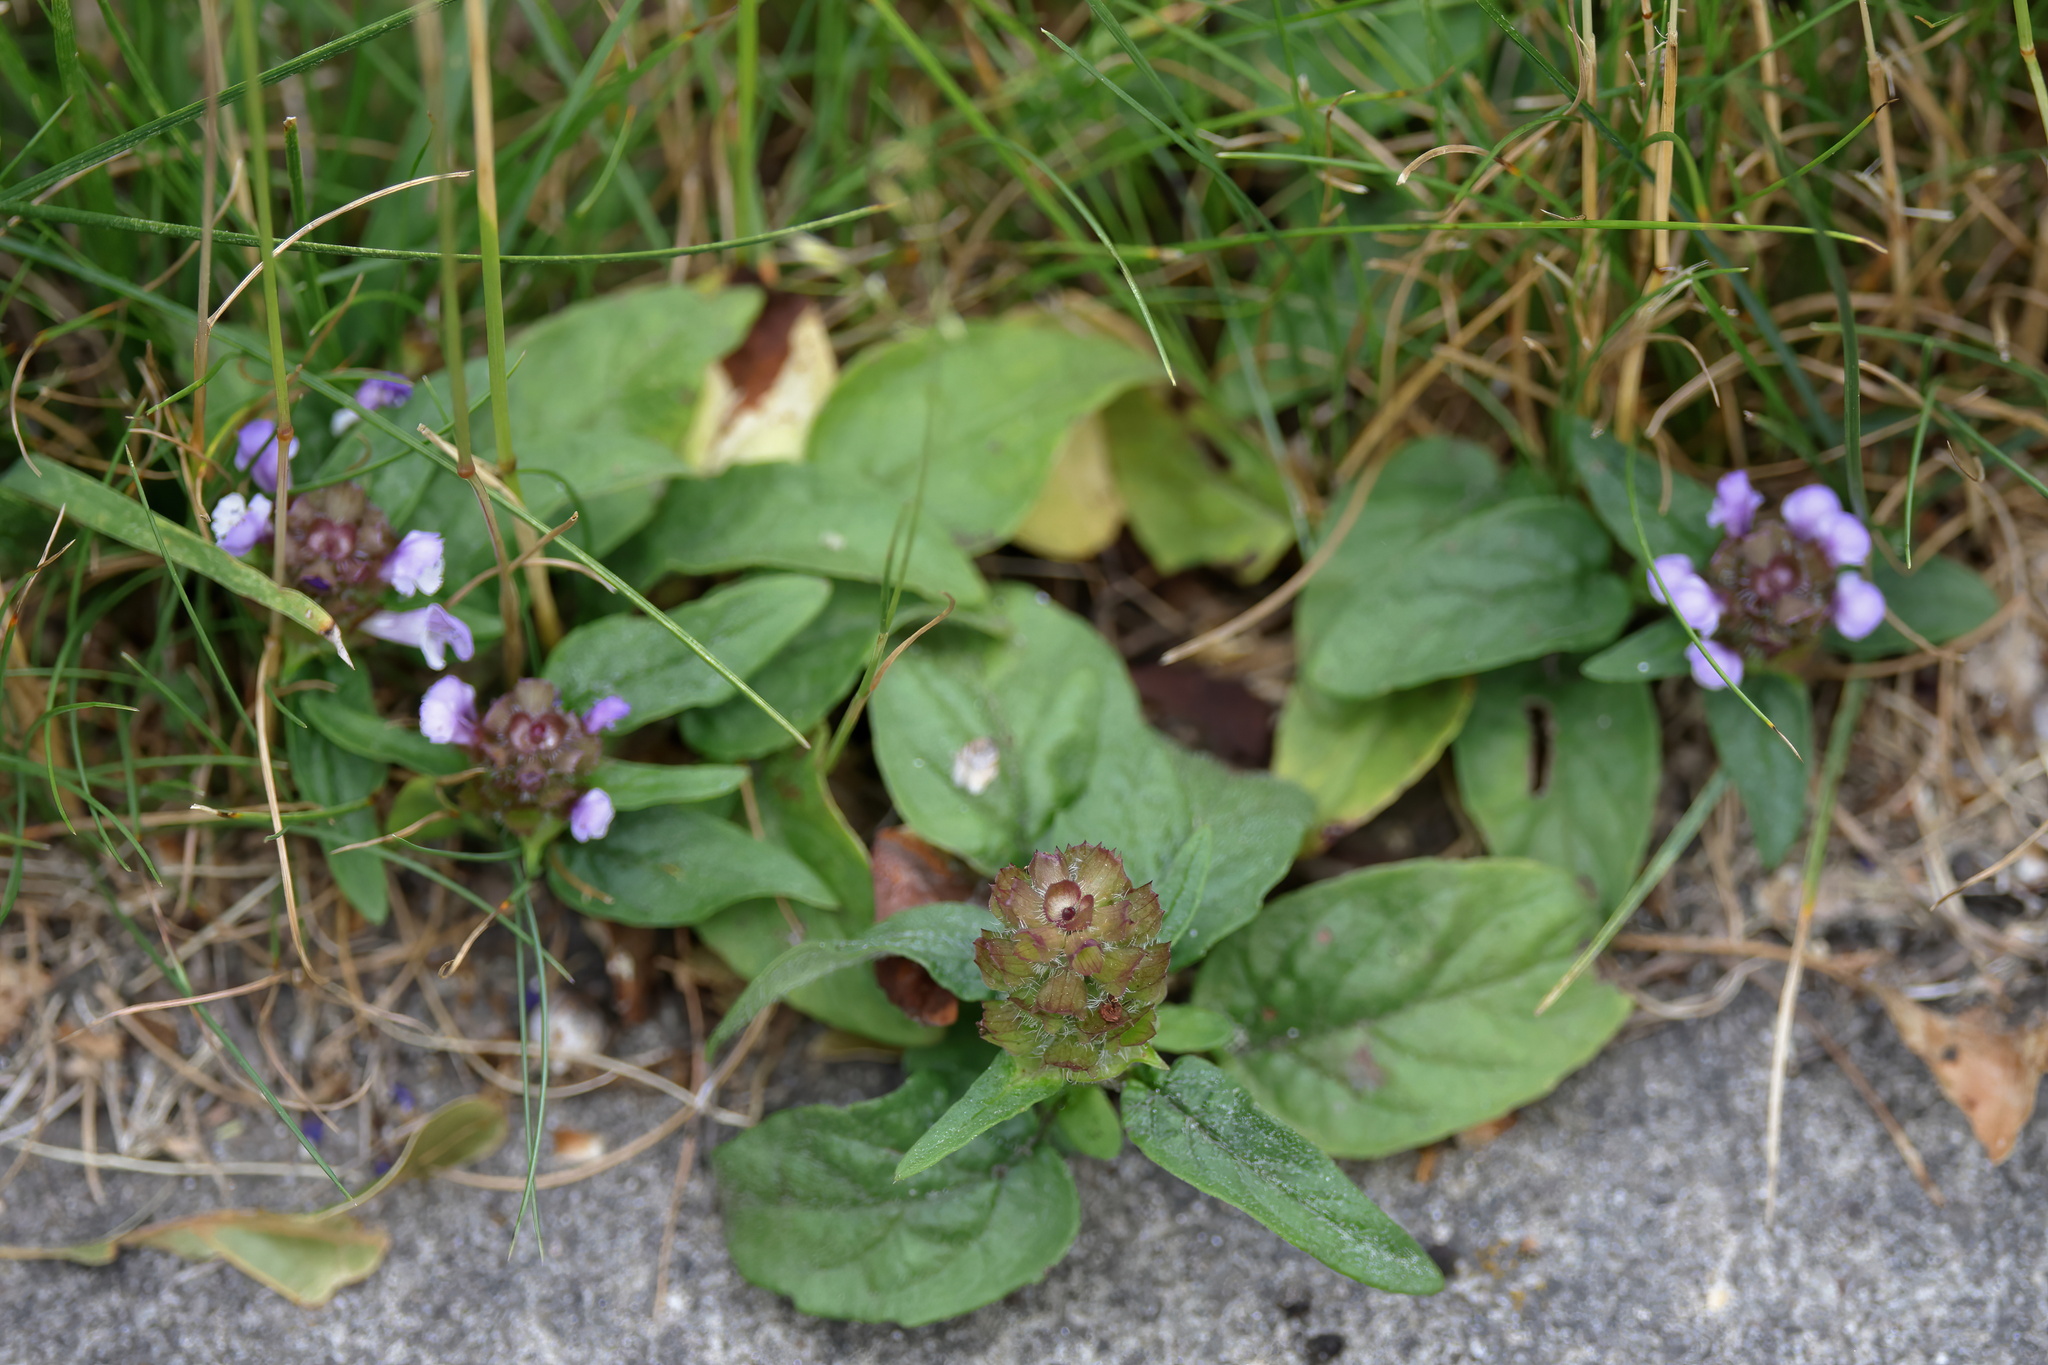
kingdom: Plantae
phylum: Tracheophyta
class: Magnoliopsida
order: Lamiales
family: Lamiaceae
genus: Prunella
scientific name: Prunella vulgaris
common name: Heal-all
